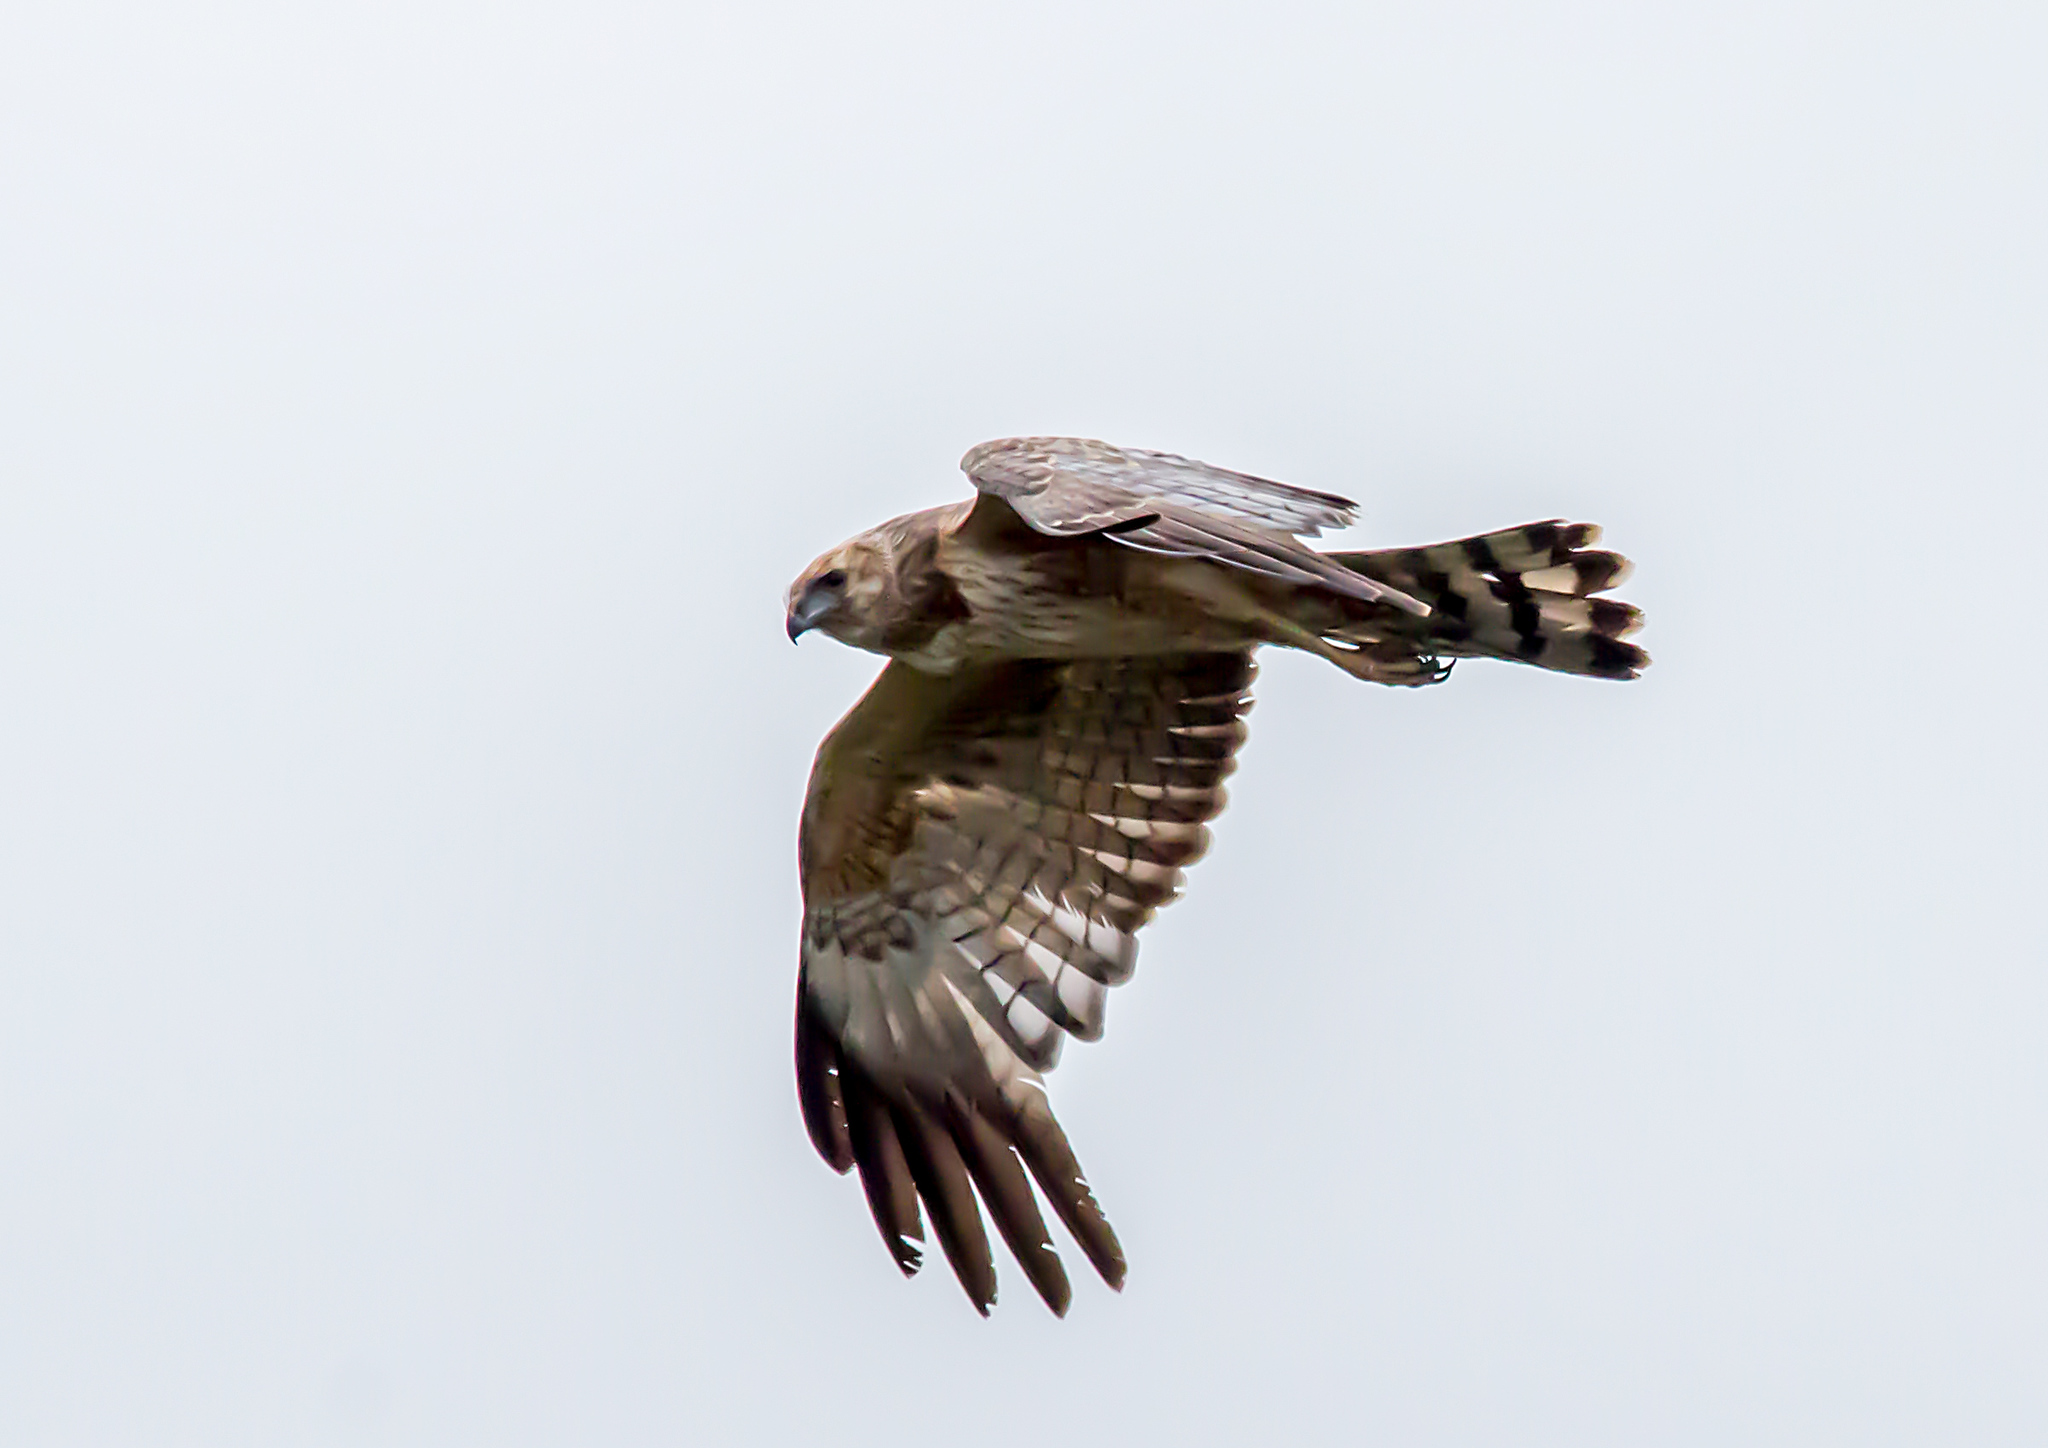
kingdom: Animalia
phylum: Chordata
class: Aves
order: Accipitriformes
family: Accipitridae
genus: Circus
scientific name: Circus assimilis
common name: Spotted harrier
